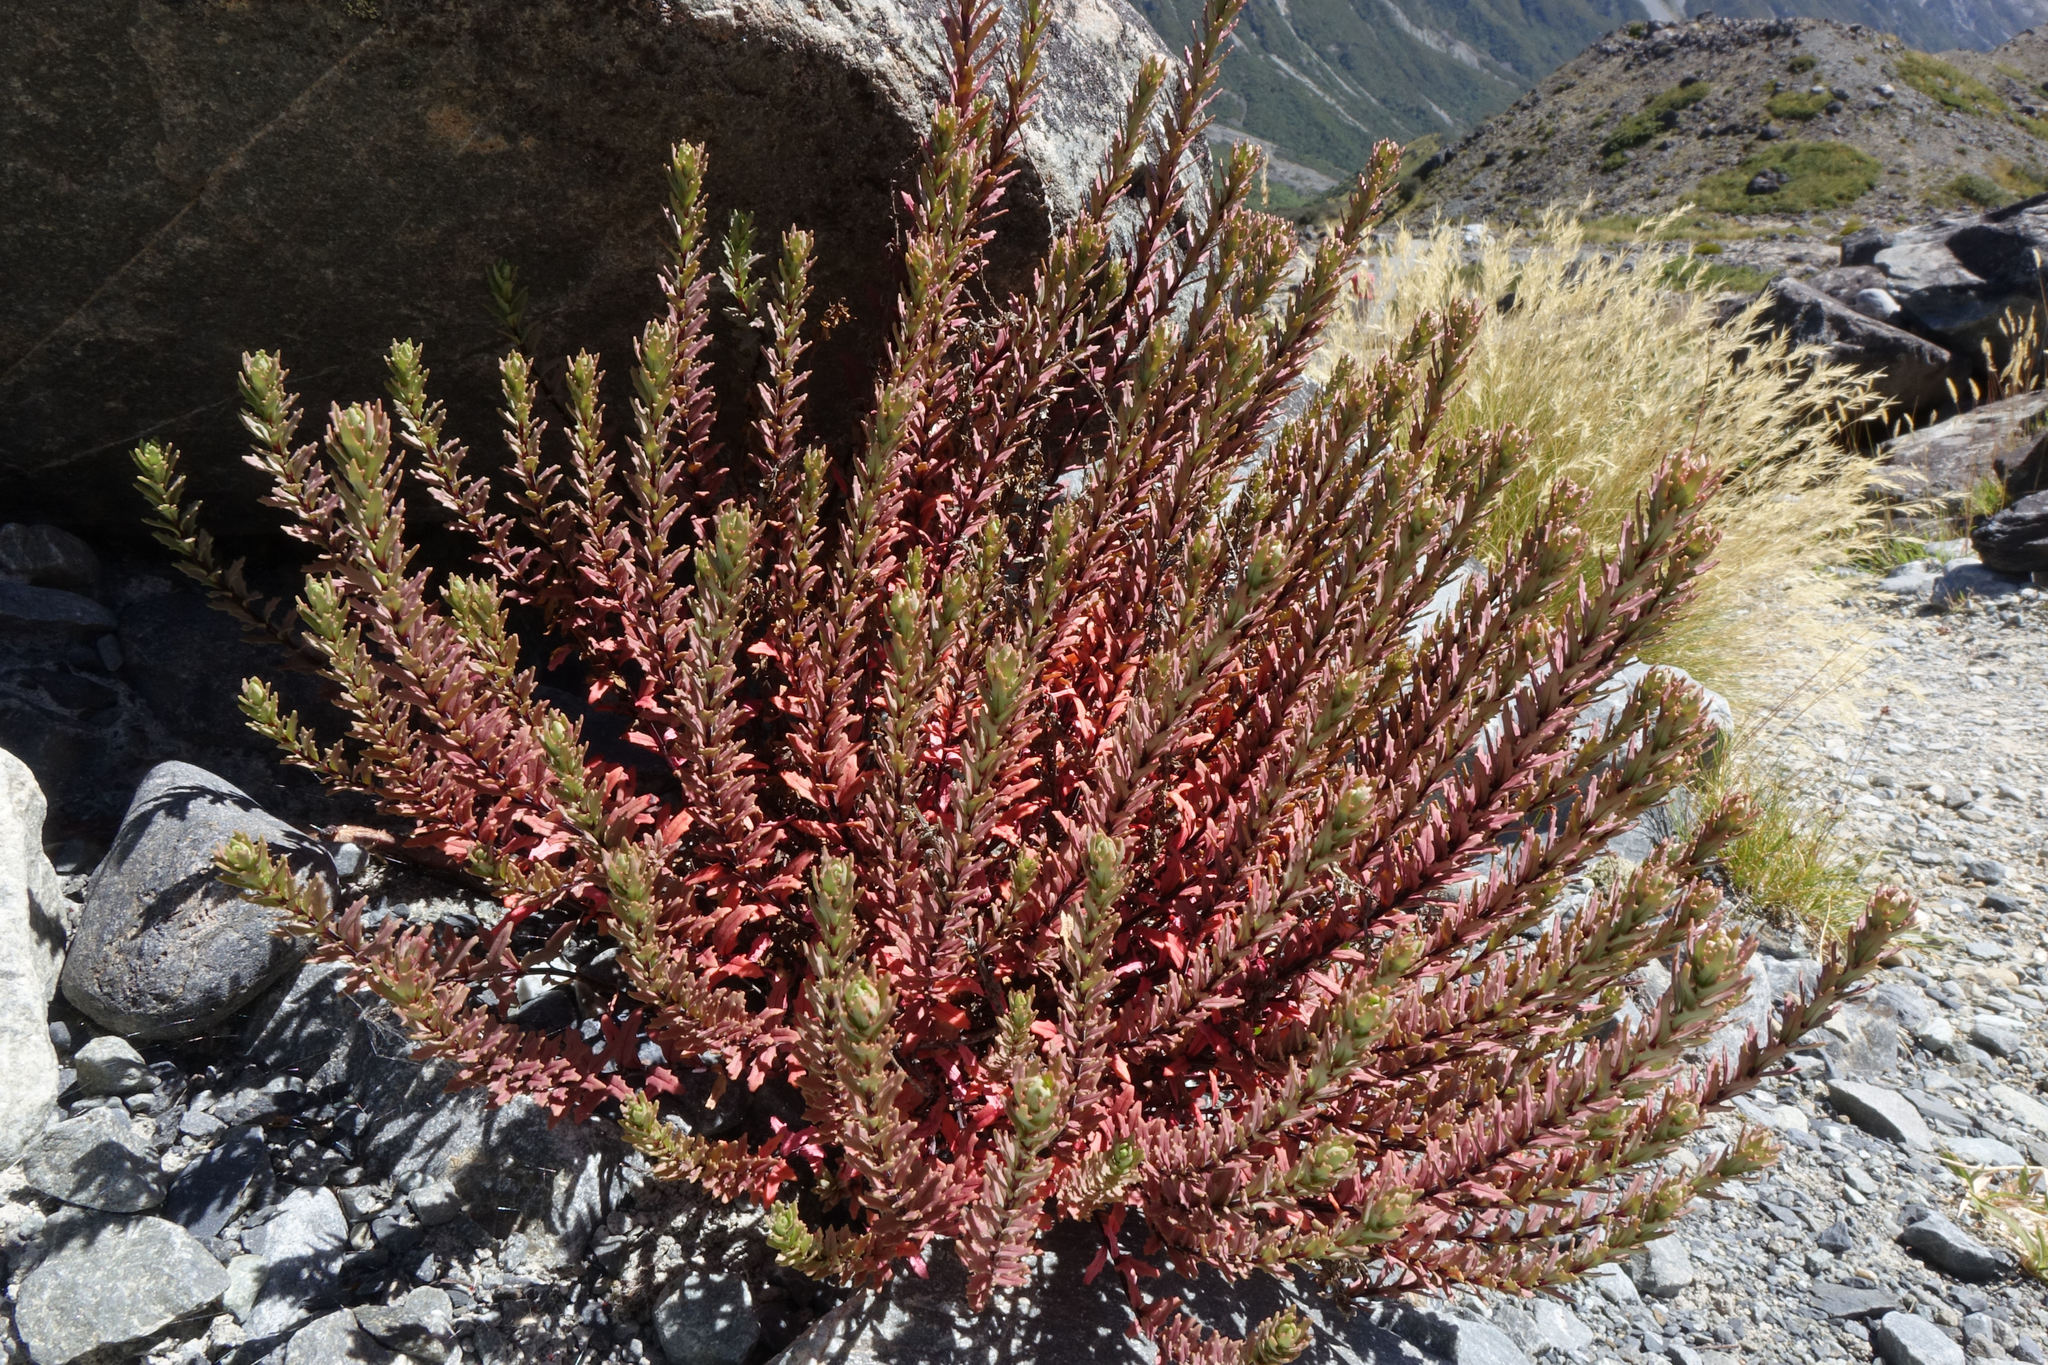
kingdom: Plantae
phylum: Tracheophyta
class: Magnoliopsida
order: Myrtales
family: Onagraceae
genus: Epilobium
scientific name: Epilobium melanocaulon
